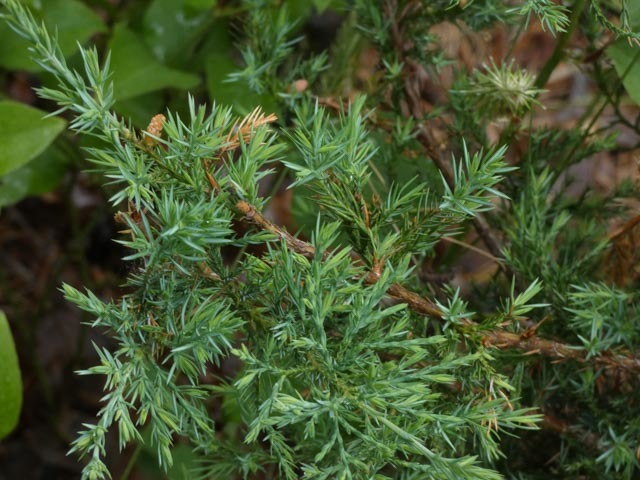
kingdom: Plantae
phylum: Tracheophyta
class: Pinopsida
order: Pinales
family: Cupressaceae
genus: Juniperus
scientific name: Juniperus virginiana
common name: Red juniper
